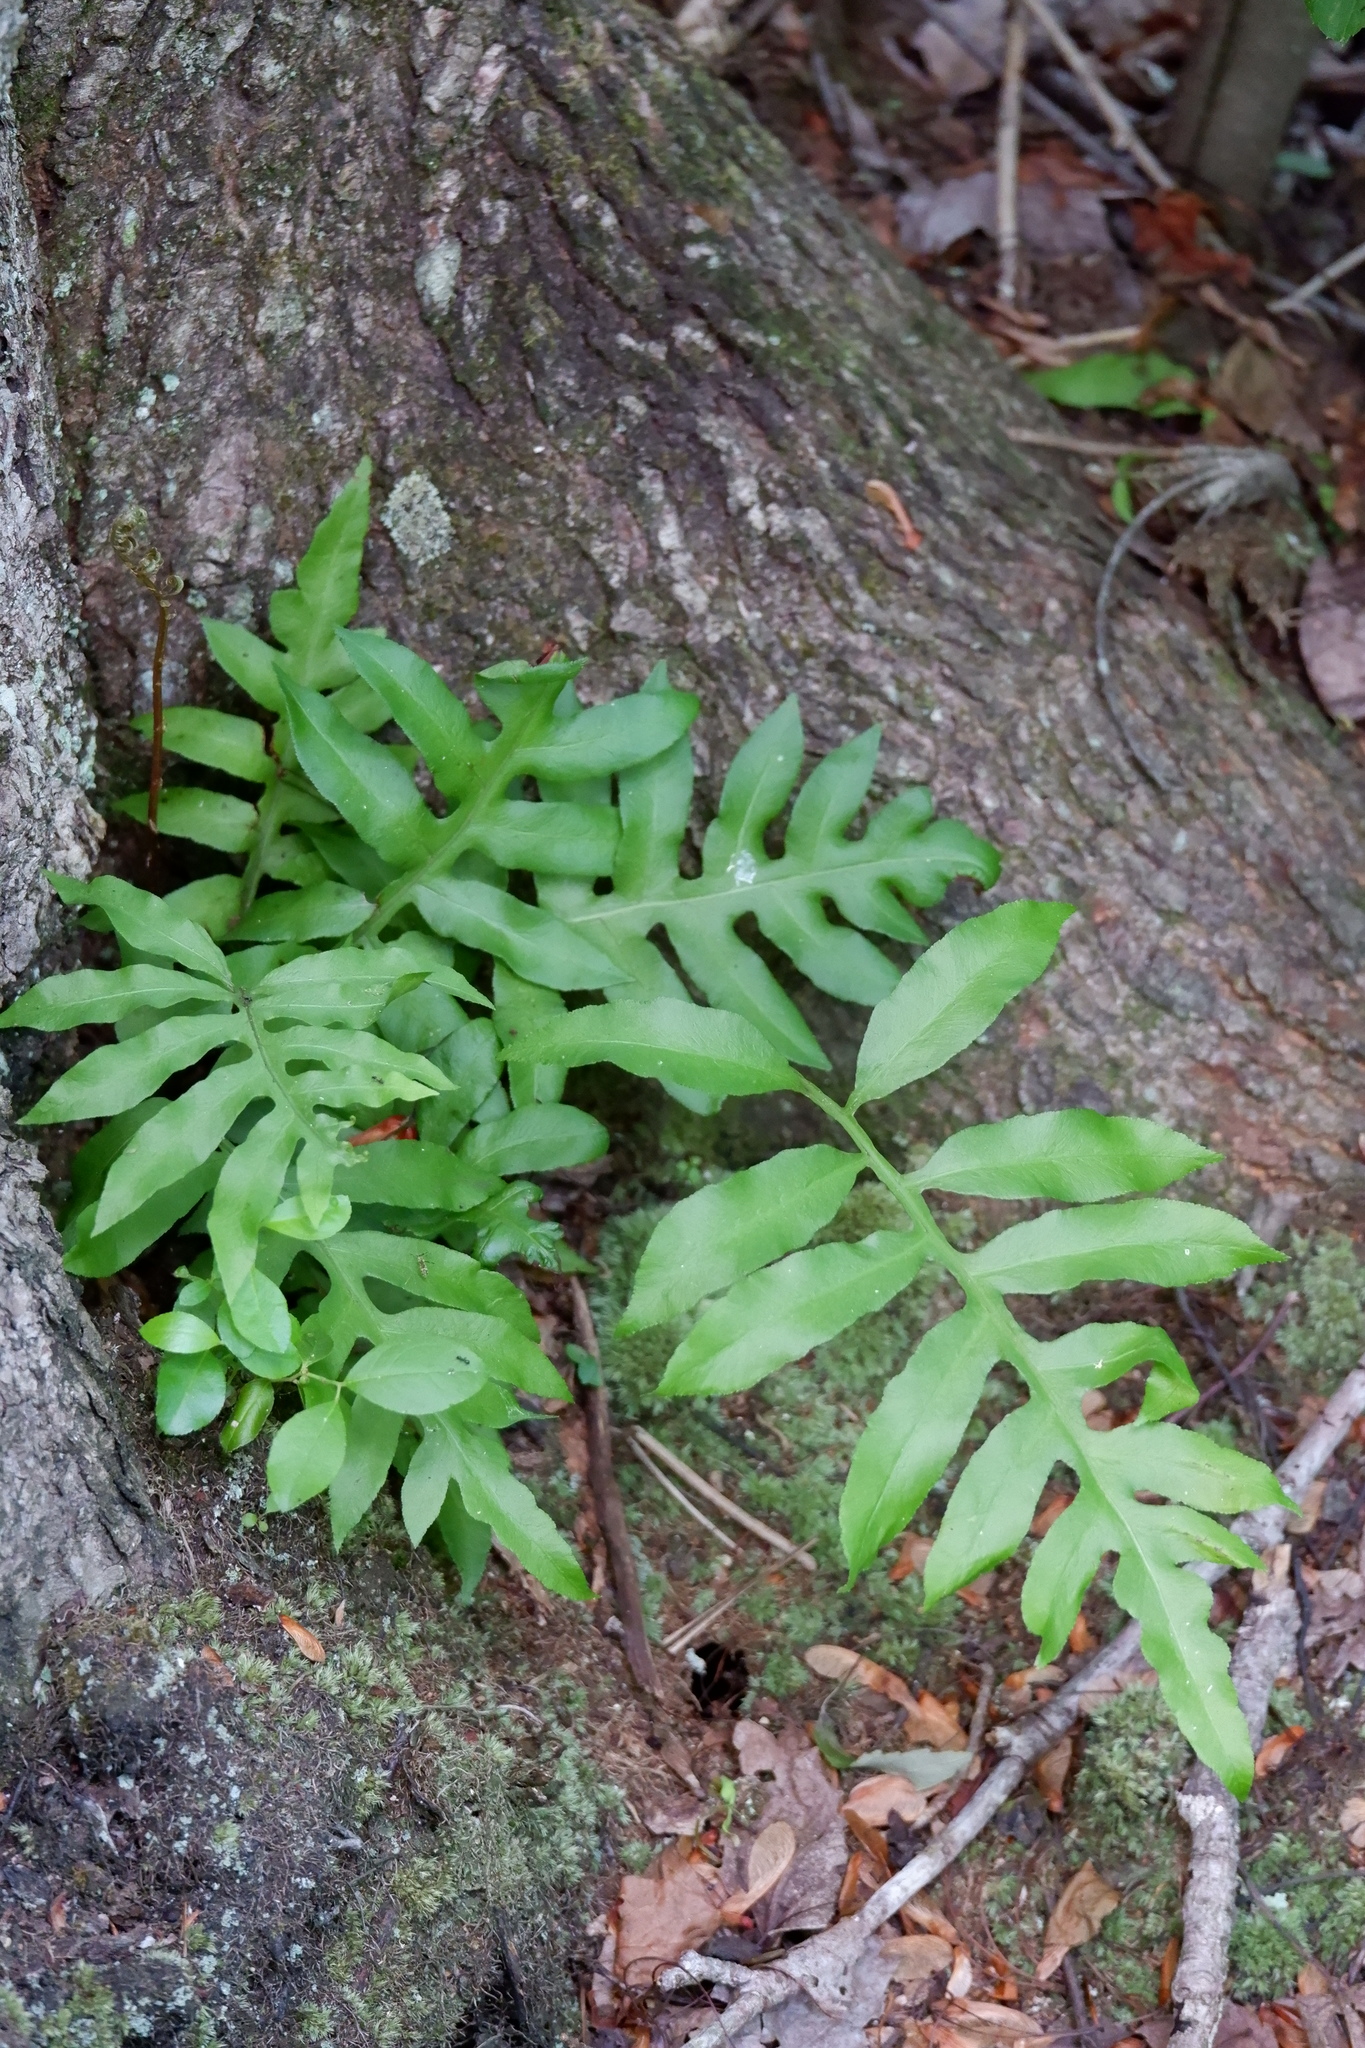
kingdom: Plantae
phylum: Tracheophyta
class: Polypodiopsida
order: Polypodiales
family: Blechnaceae
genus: Lorinseria
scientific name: Lorinseria areolata
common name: Dwarf chain fern
